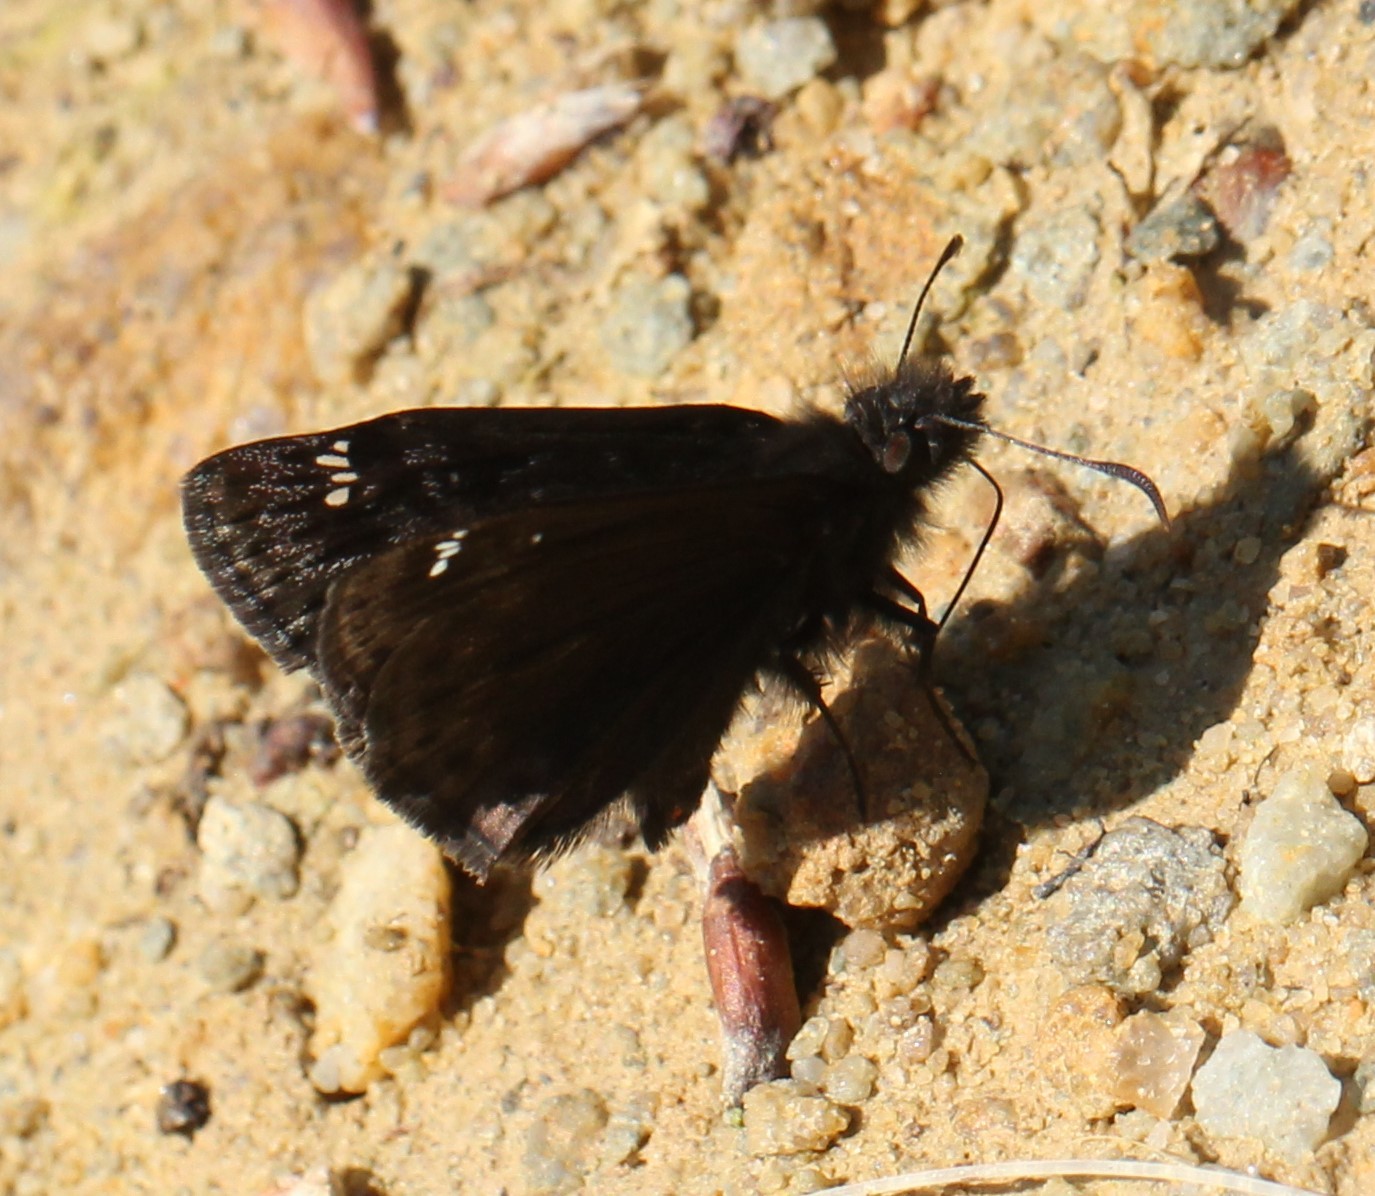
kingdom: Animalia
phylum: Arthropoda
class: Insecta
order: Lepidoptera
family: Hesperiidae
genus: Erynnis
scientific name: Erynnis juvenalis
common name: Juvenal's duskywing
